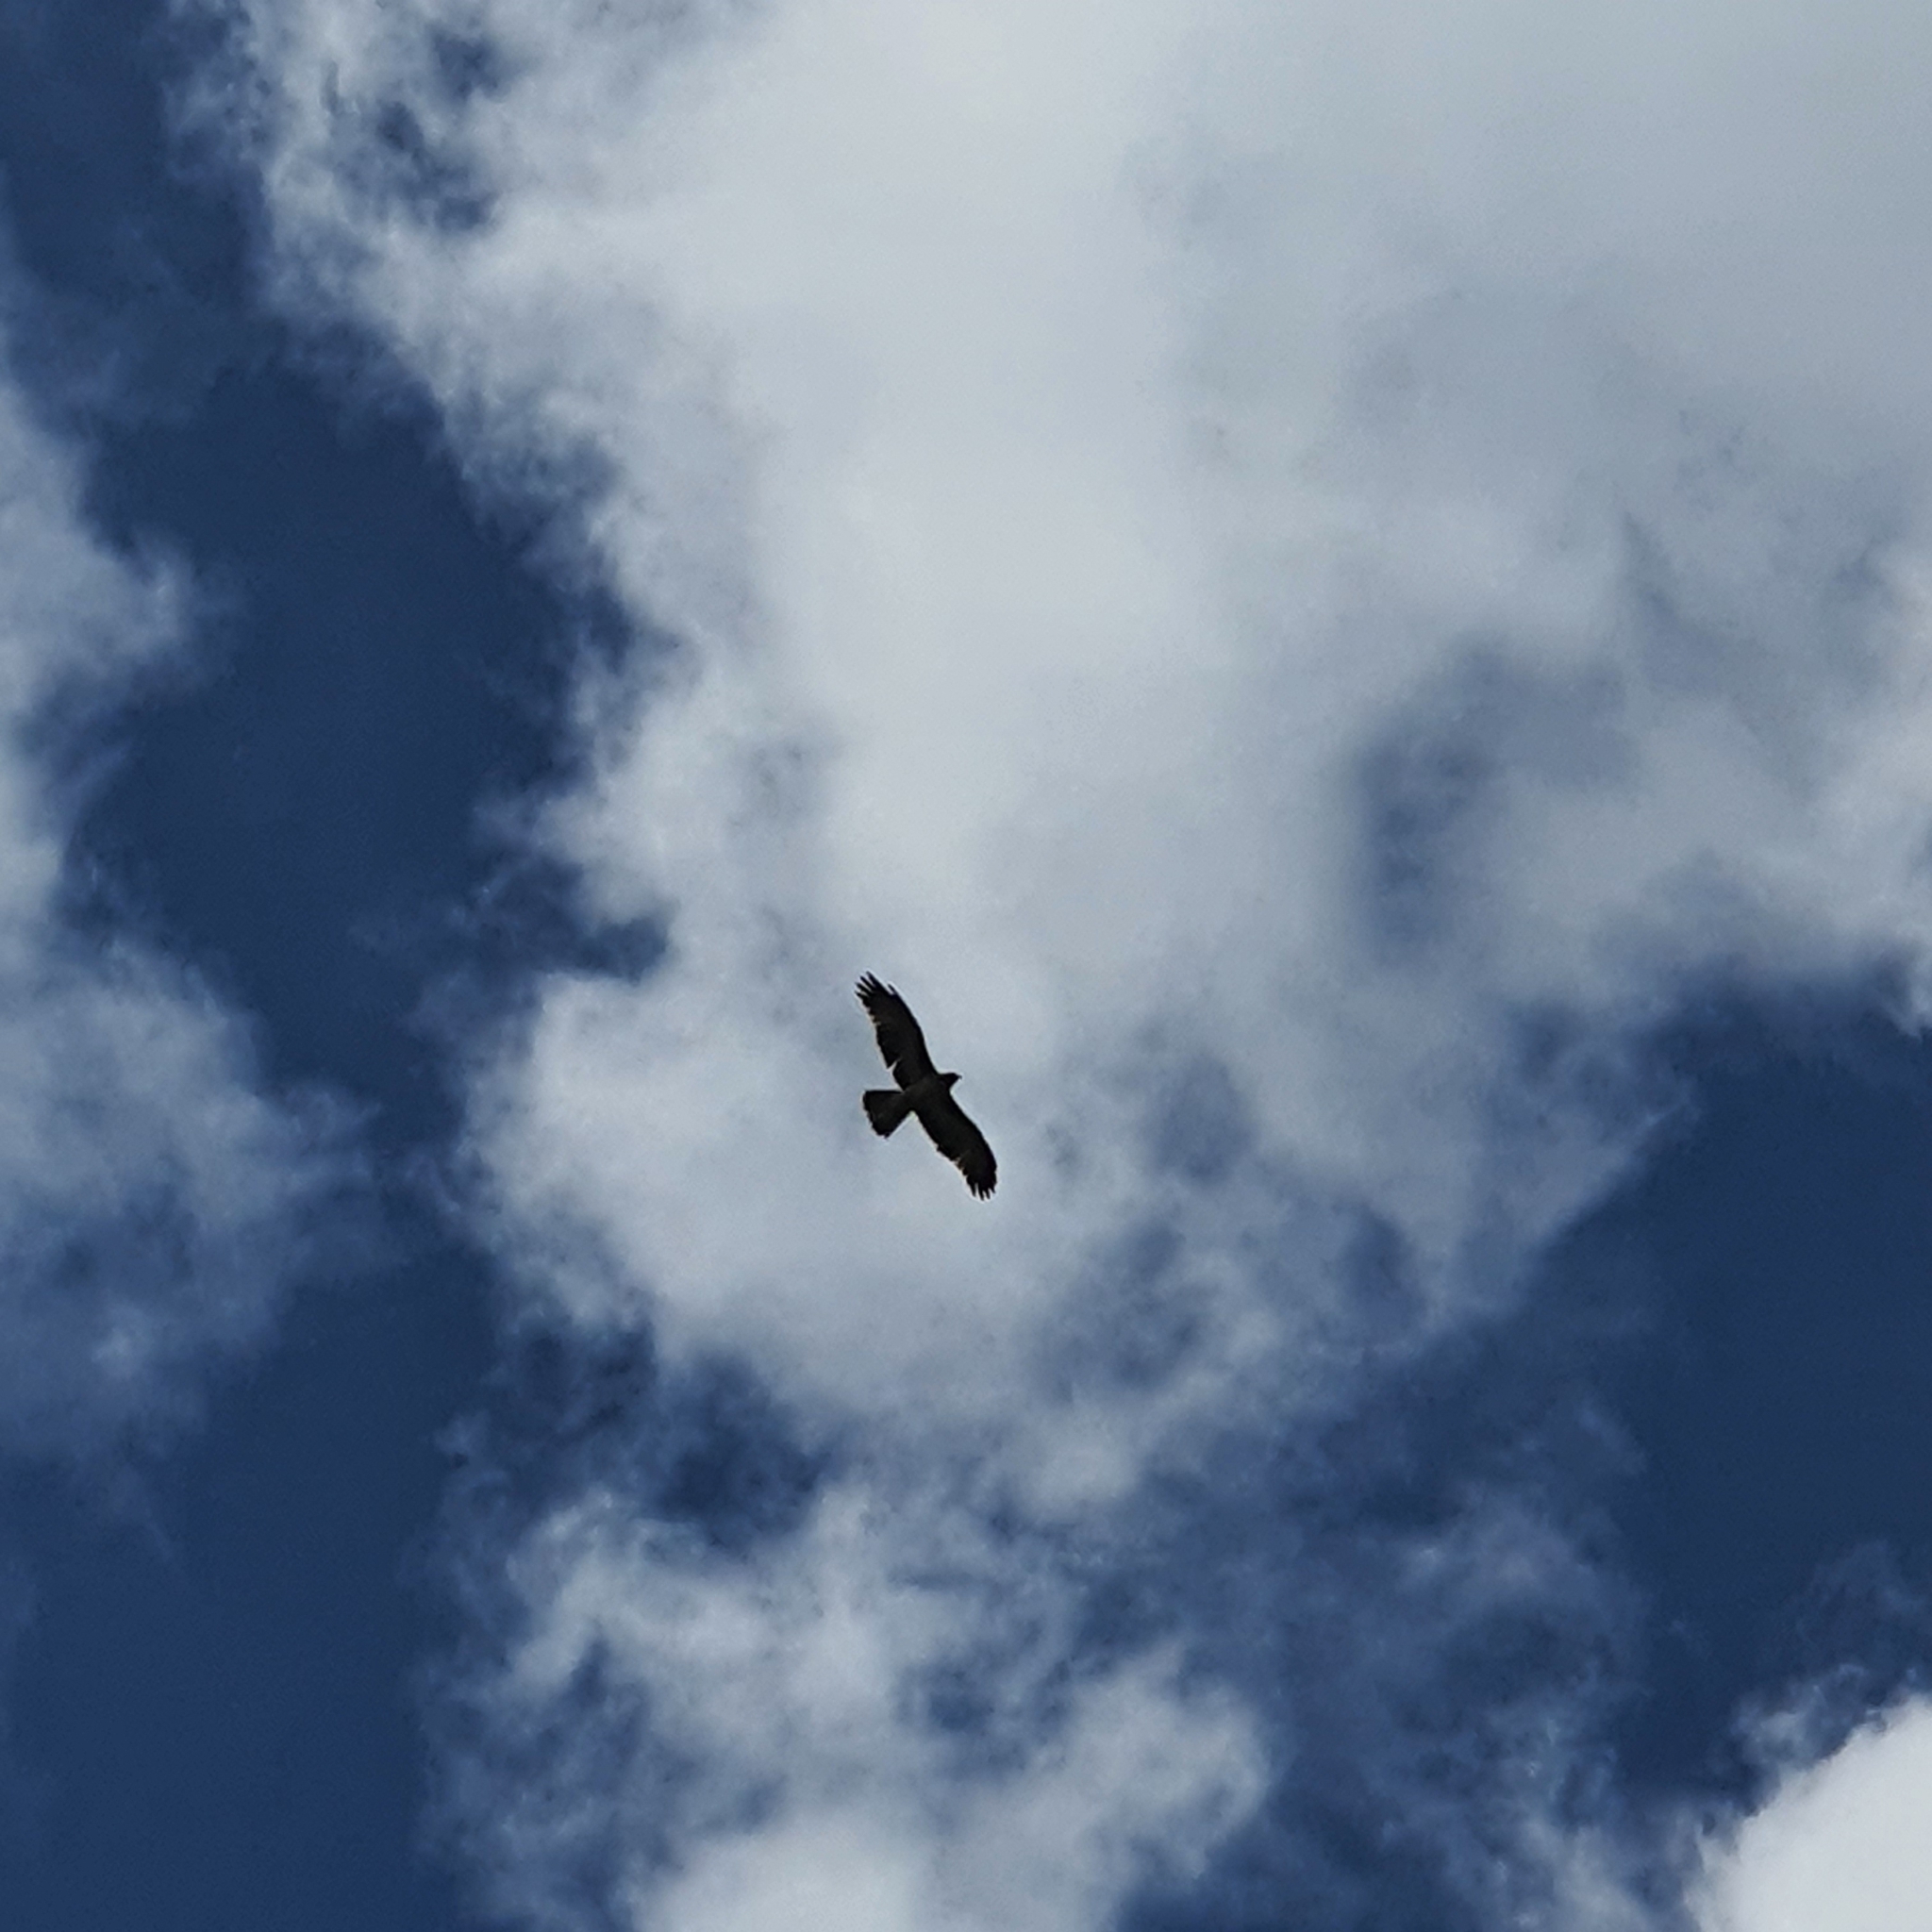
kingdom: Animalia
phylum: Chordata
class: Aves
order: Accipitriformes
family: Accipitridae
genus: Hieraaetus
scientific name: Hieraaetus morphnoides
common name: Little eagle
